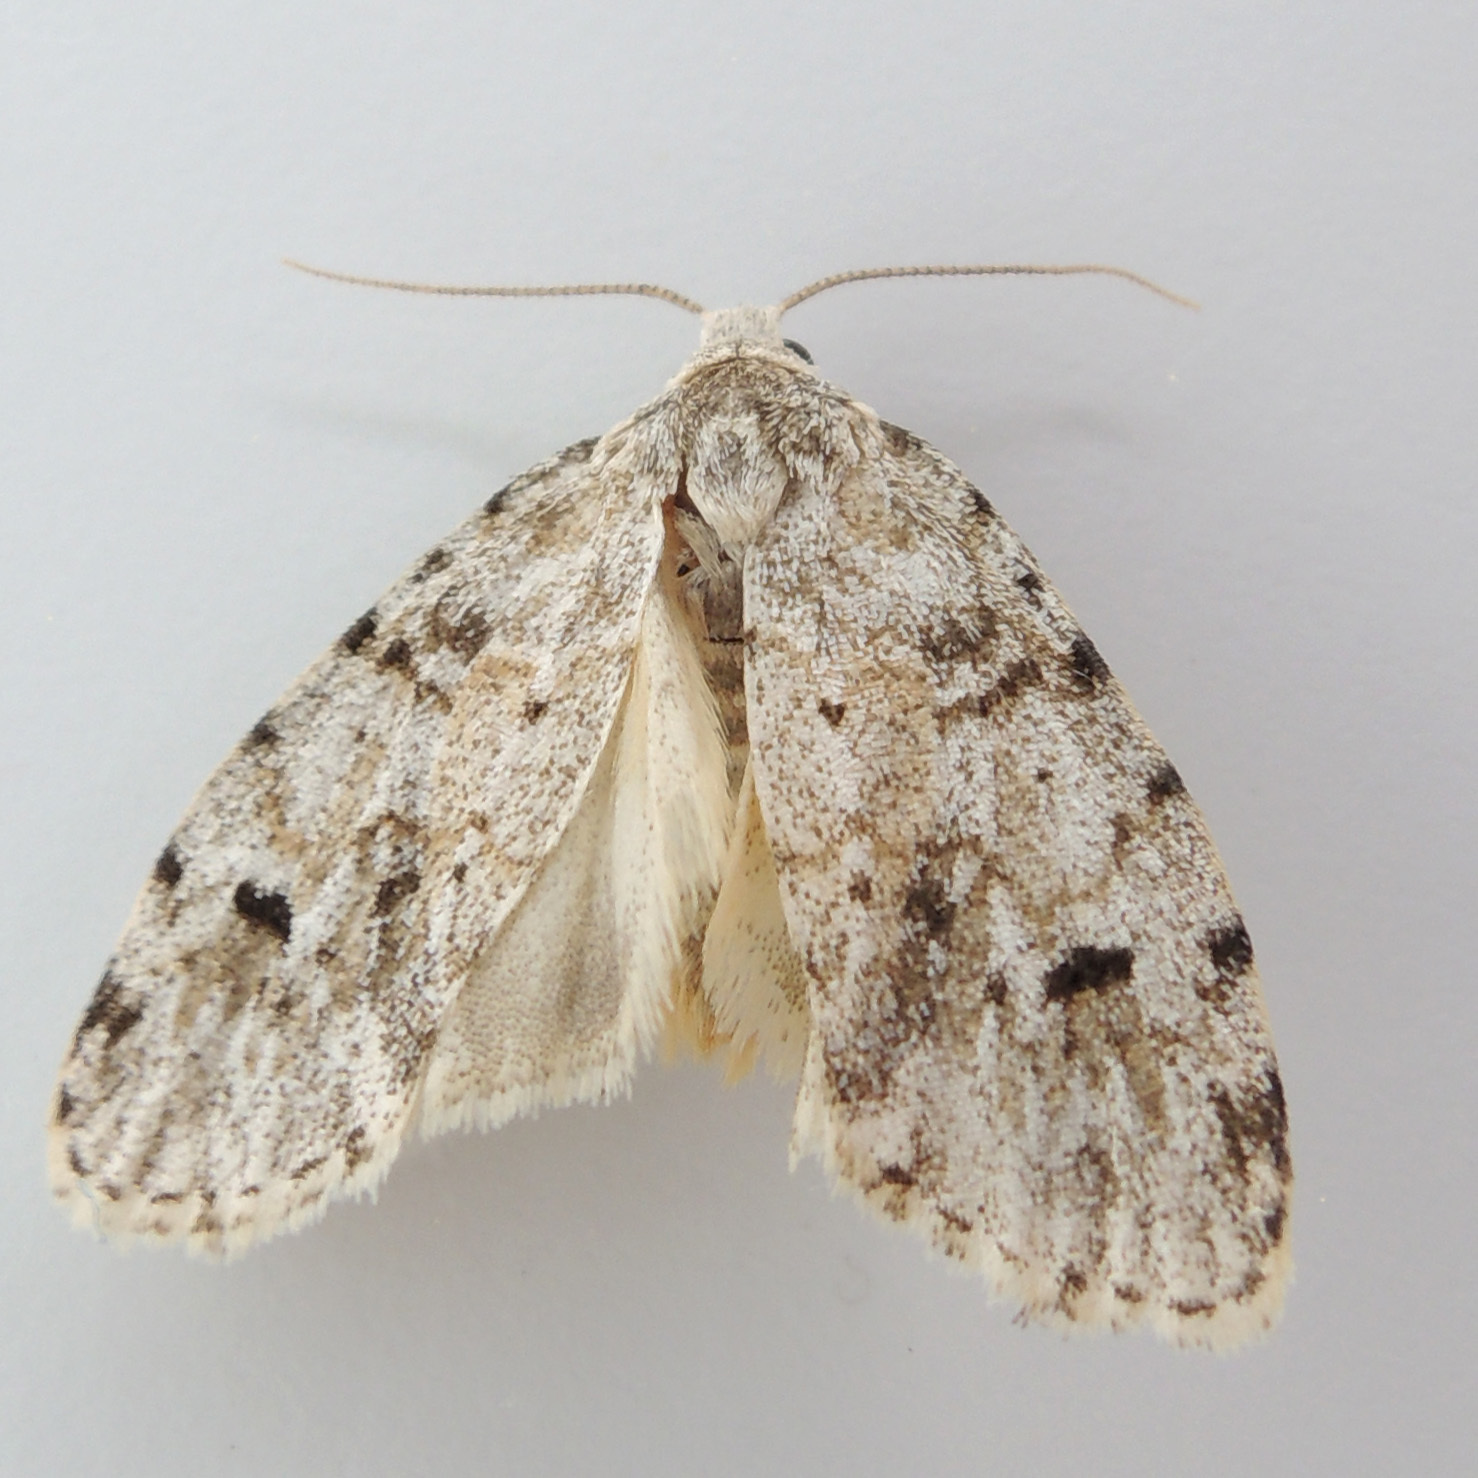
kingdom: Animalia
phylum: Arthropoda
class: Insecta
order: Lepidoptera
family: Erebidae
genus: Clemensia
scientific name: Clemensia albata
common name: Little white lichen moth
